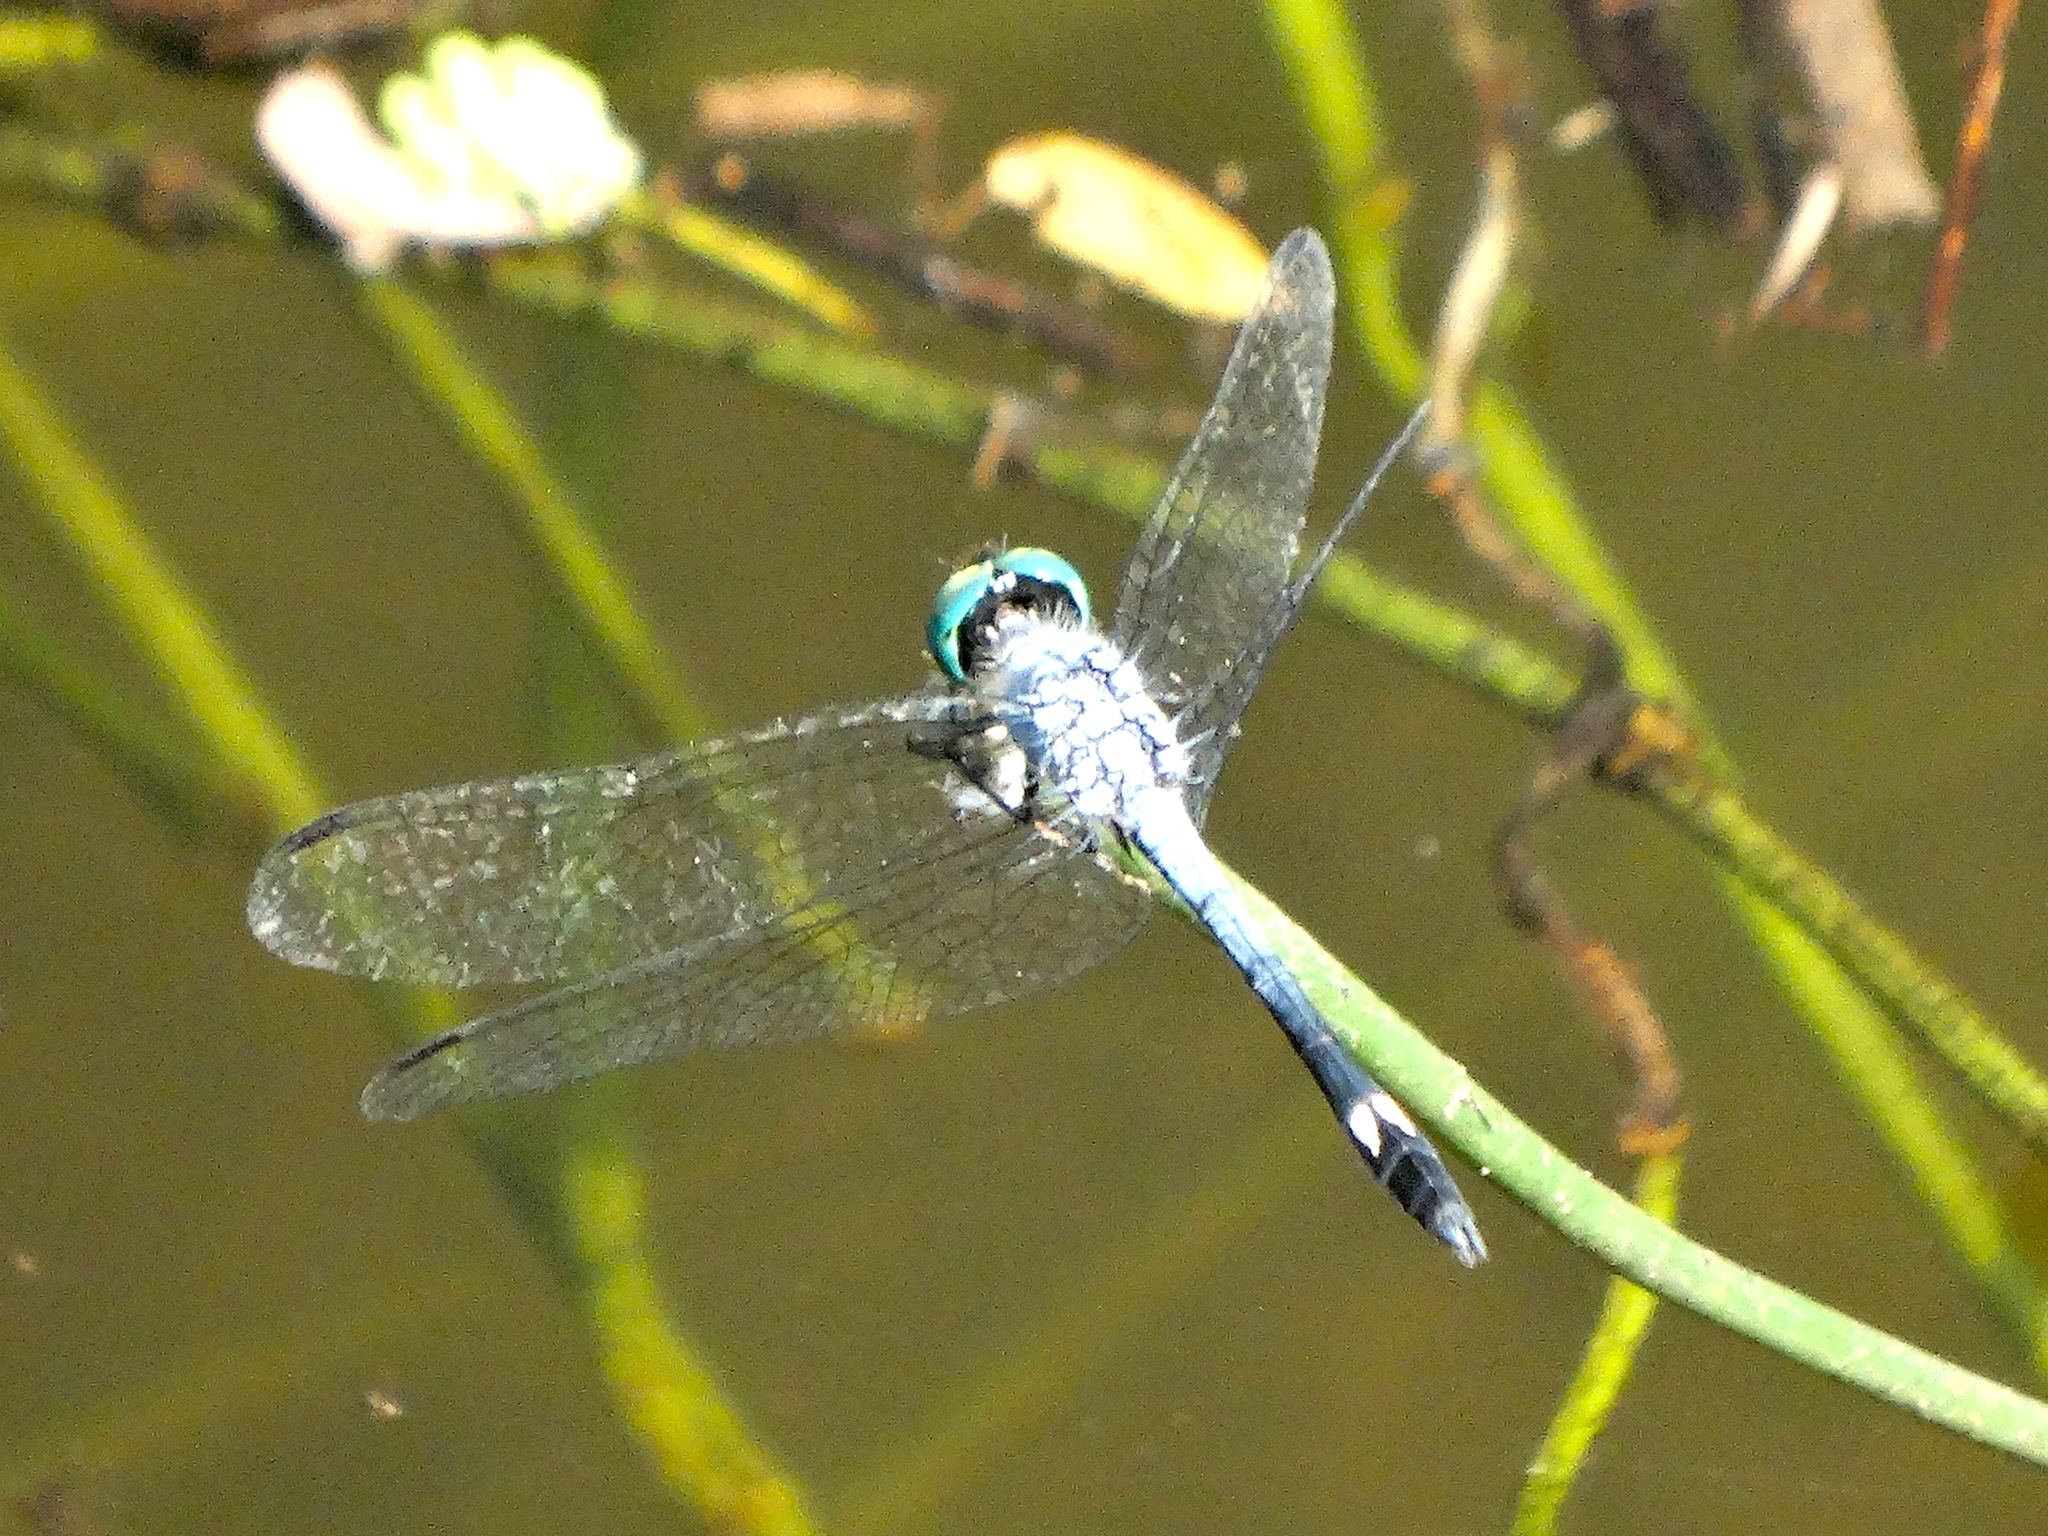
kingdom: Animalia
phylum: Arthropoda
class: Insecta
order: Odonata
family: Libellulidae
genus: Micrathyria
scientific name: Micrathyria aequalis
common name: Spot-tailed dasher
